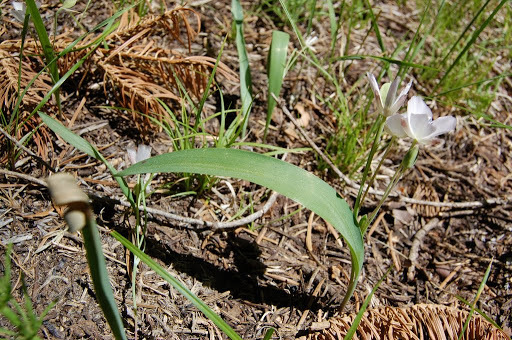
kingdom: Plantae
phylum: Tracheophyta
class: Liliopsida
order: Liliales
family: Liliaceae
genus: Calochortus
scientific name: Calochortus minimus
